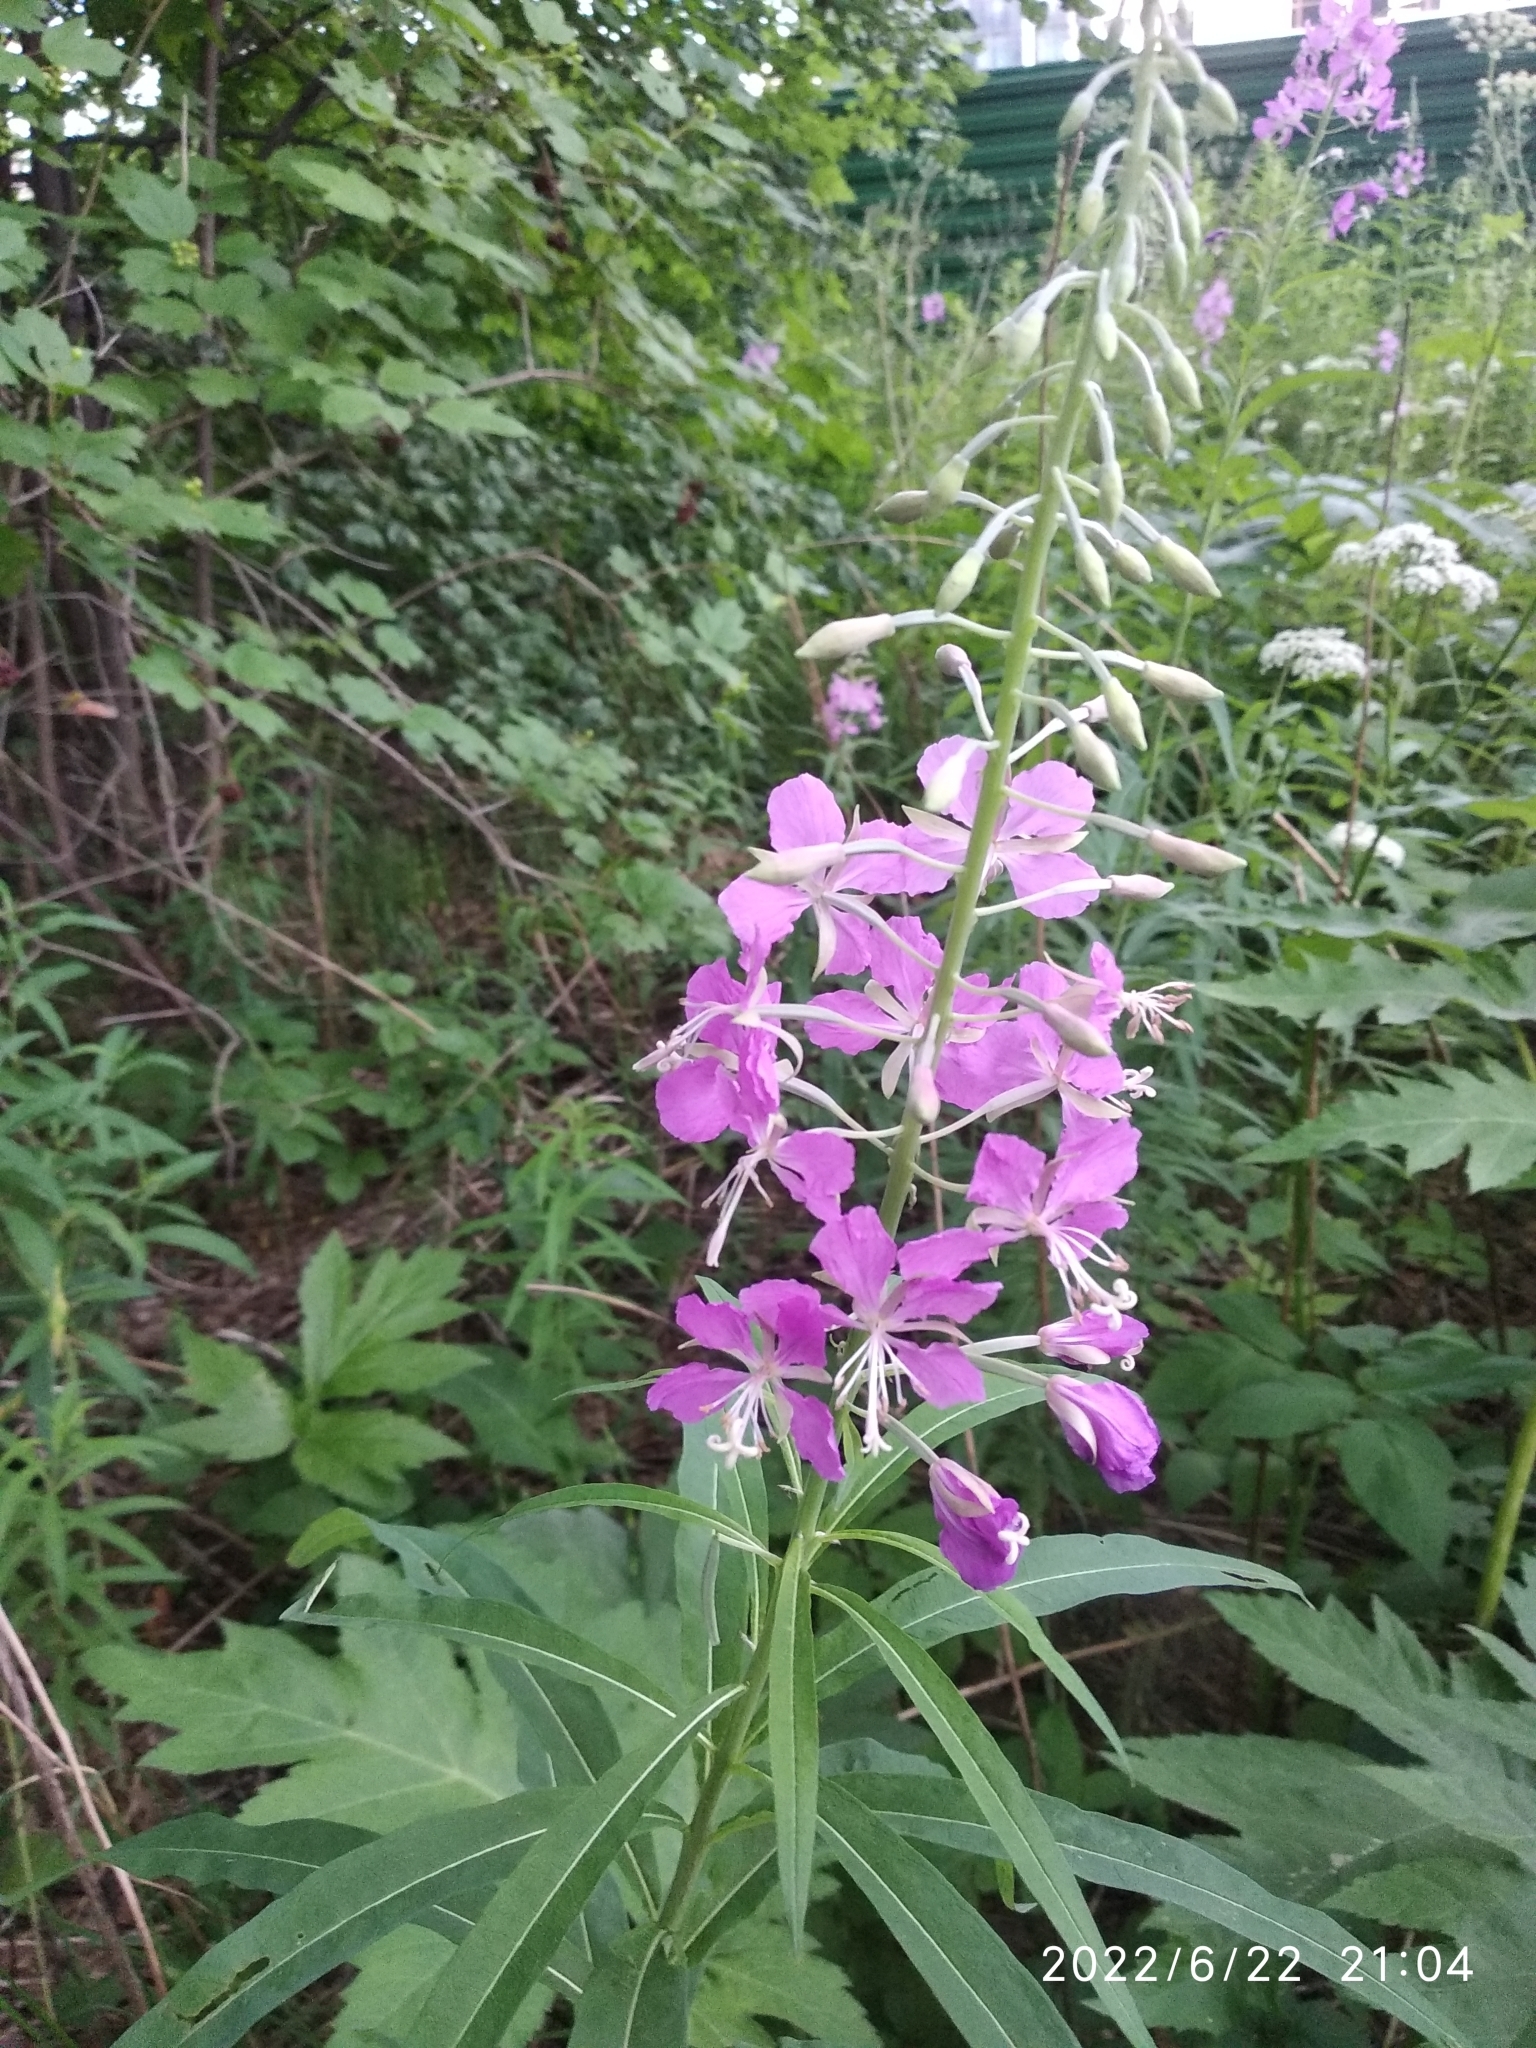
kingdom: Plantae
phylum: Tracheophyta
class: Magnoliopsida
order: Myrtales
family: Onagraceae
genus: Chamaenerion
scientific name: Chamaenerion angustifolium
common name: Fireweed
